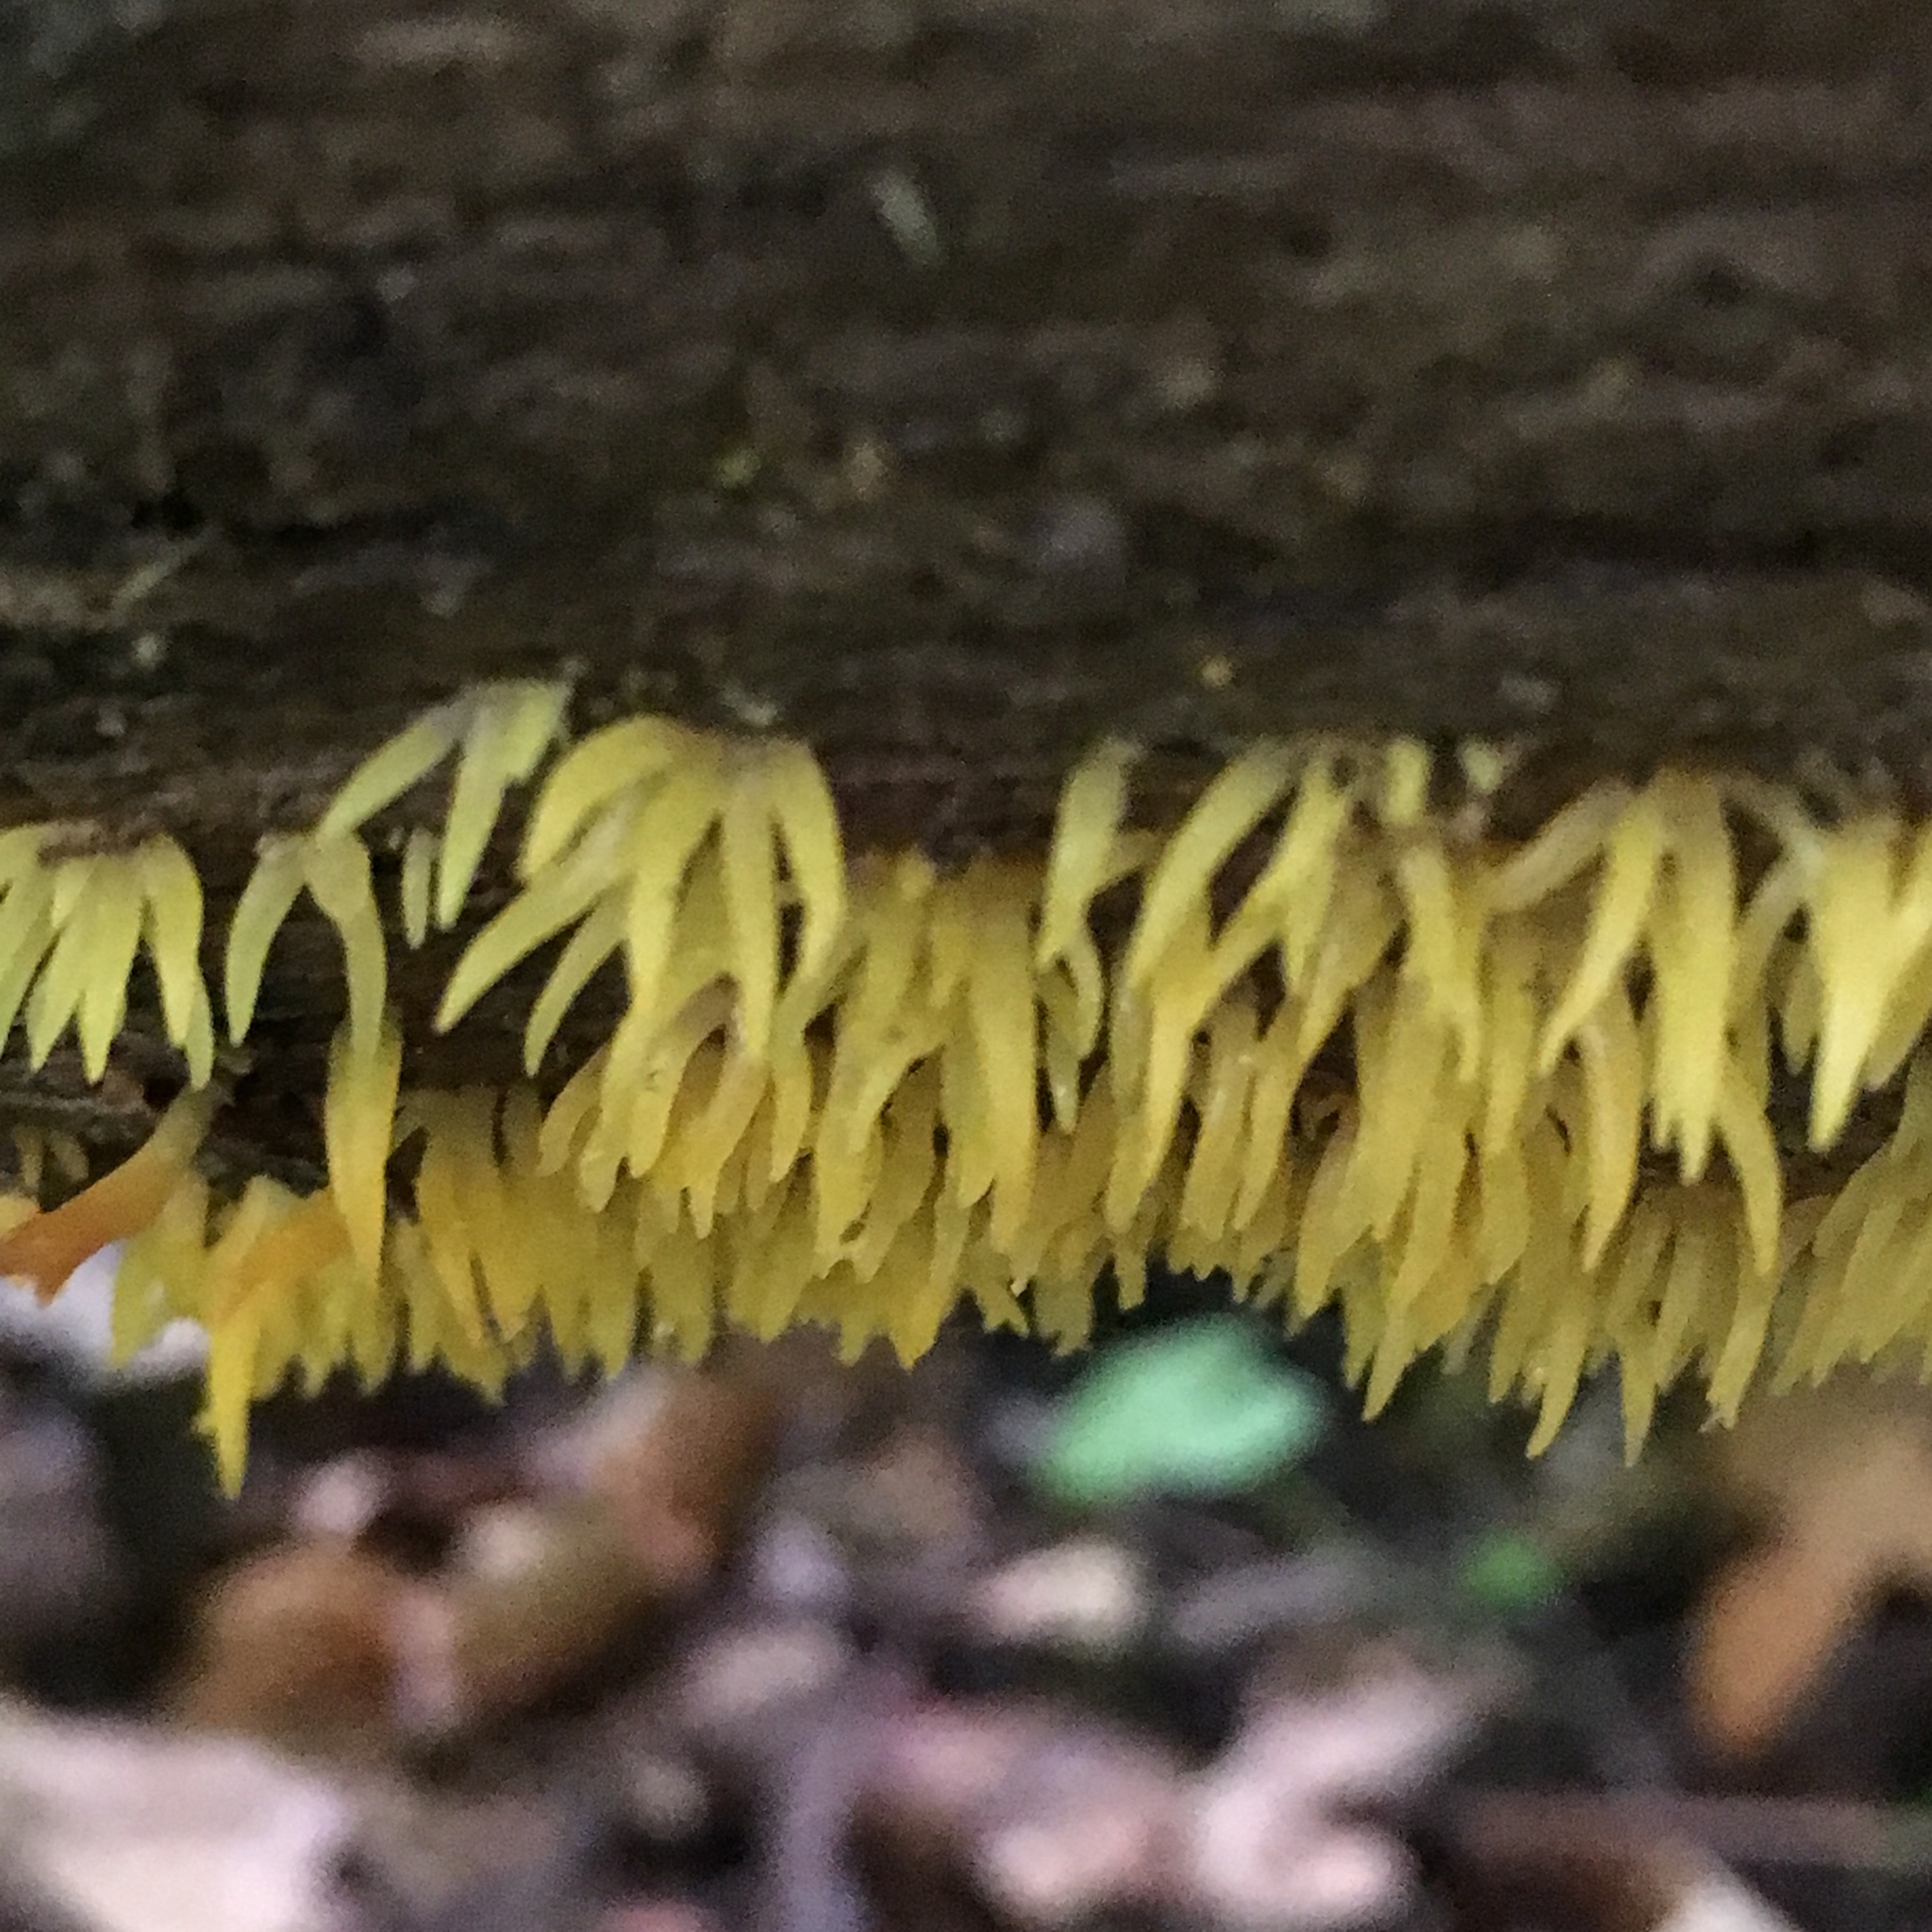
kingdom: Fungi
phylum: Basidiomycota
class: Dacrymycetes
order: Dacrymycetales
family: Dacrymycetaceae
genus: Calocera
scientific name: Calocera cornea
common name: Small stagshorn
